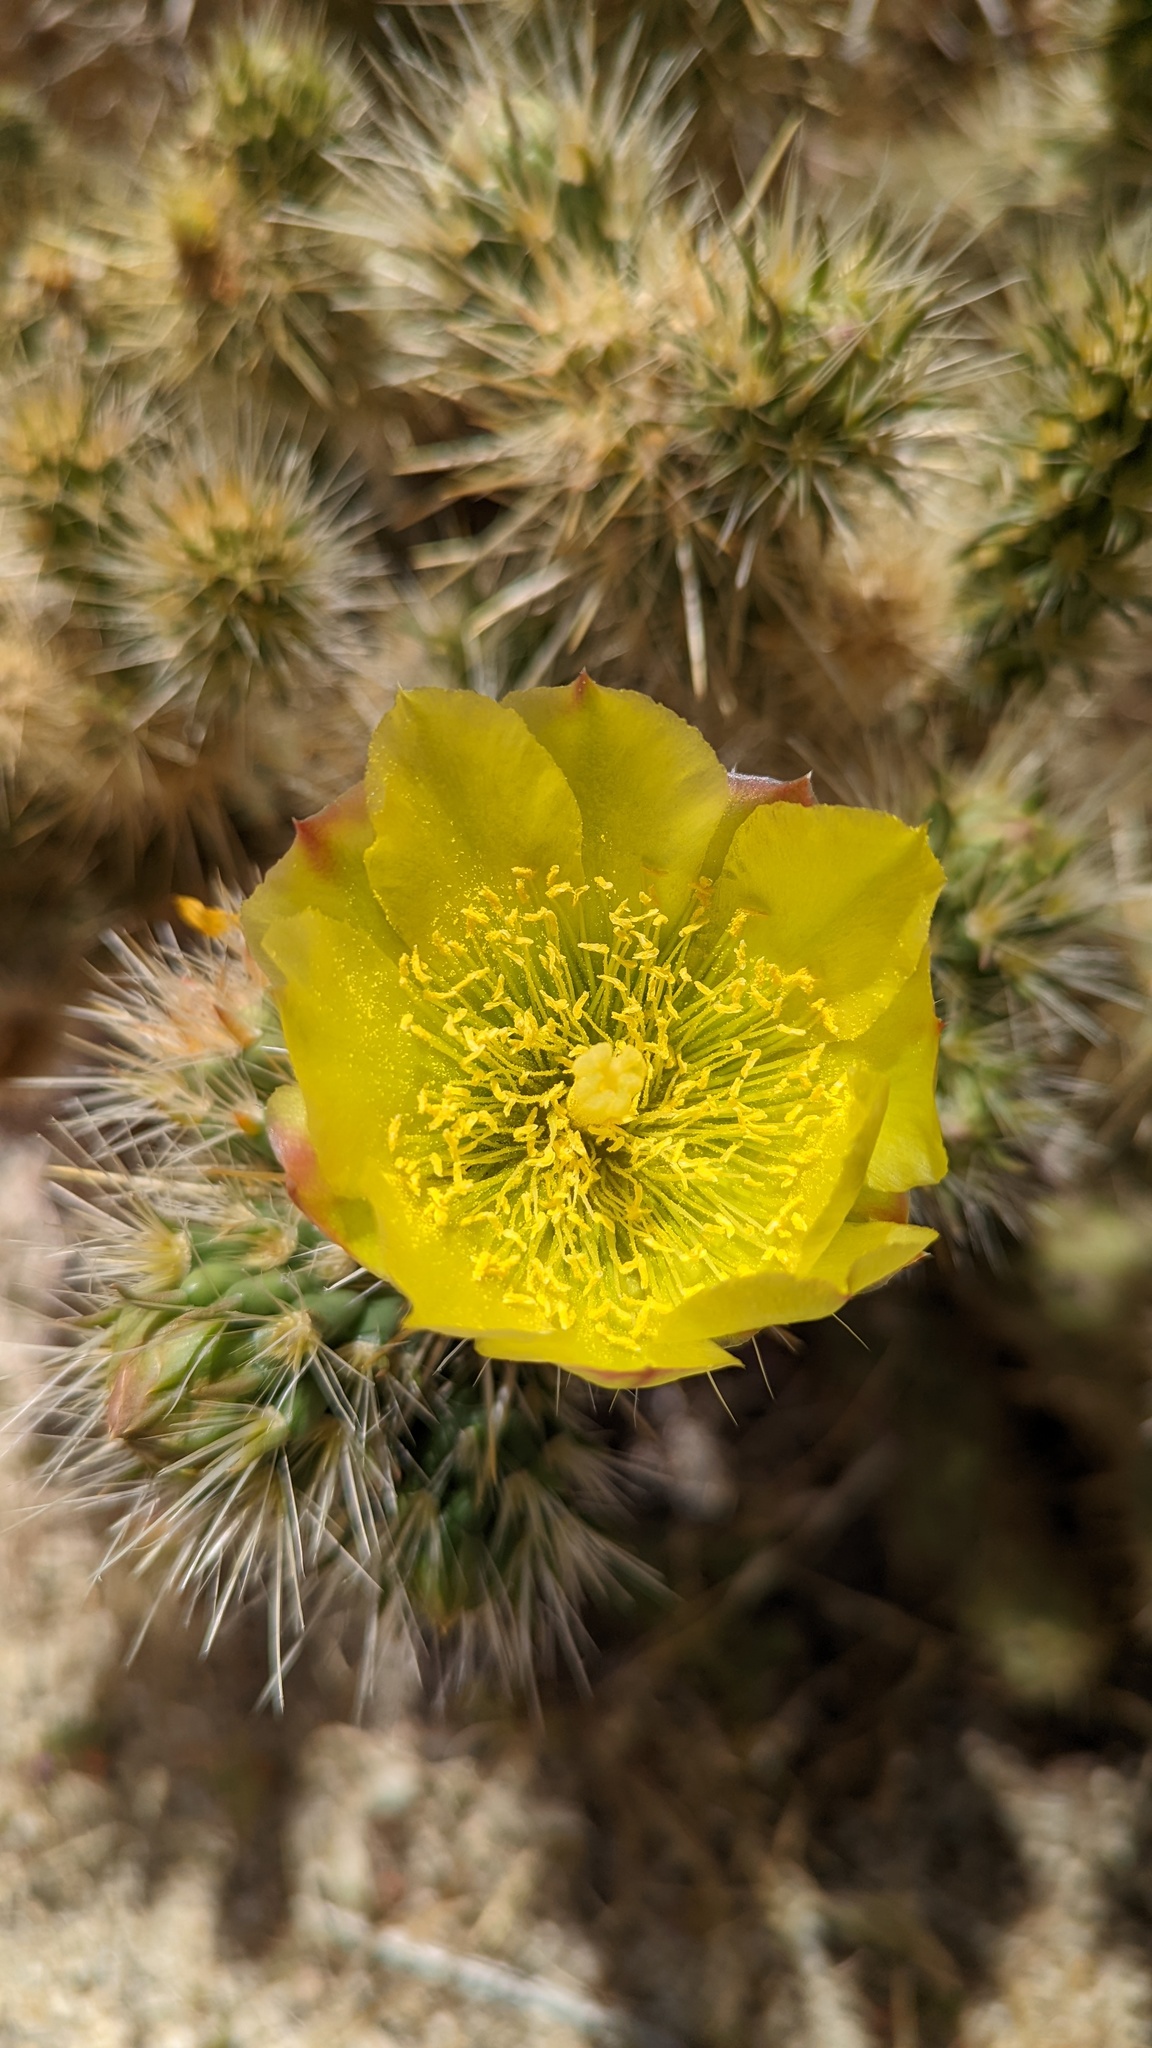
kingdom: Plantae
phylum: Tracheophyta
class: Magnoliopsida
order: Caryophyllales
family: Cactaceae
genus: Cylindropuntia
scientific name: Cylindropuntia ganderi
